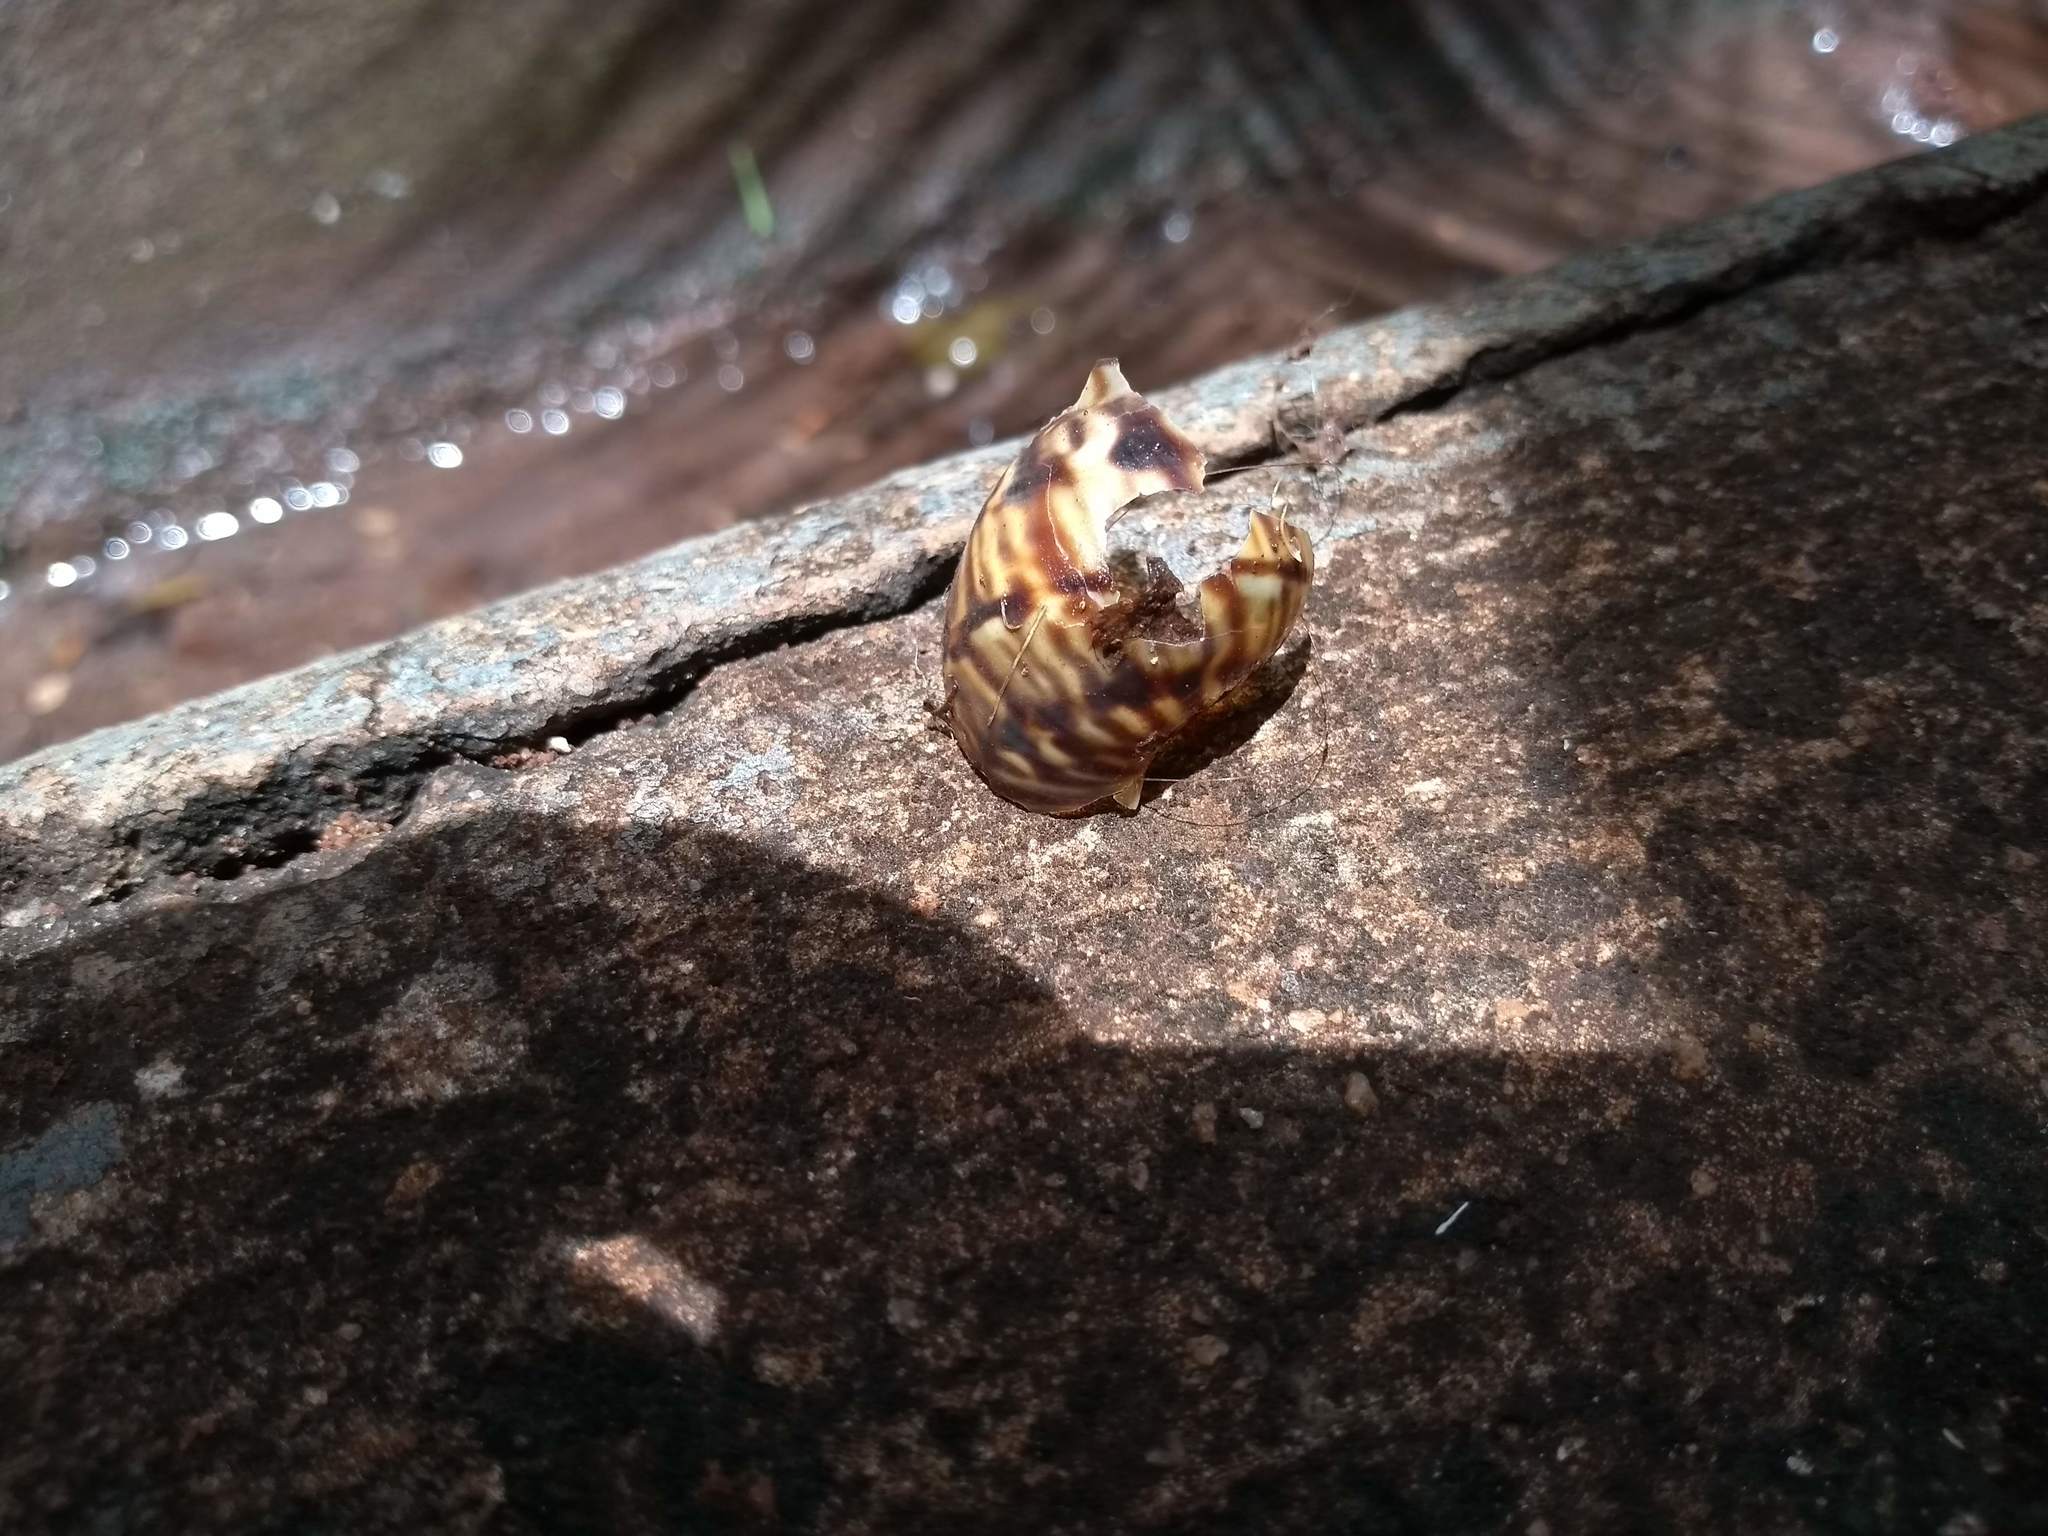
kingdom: Animalia
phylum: Mollusca
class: Gastropoda
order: Stylommatophora
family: Orthalicidae
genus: Orthalicus
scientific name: Orthalicus pulchellus
